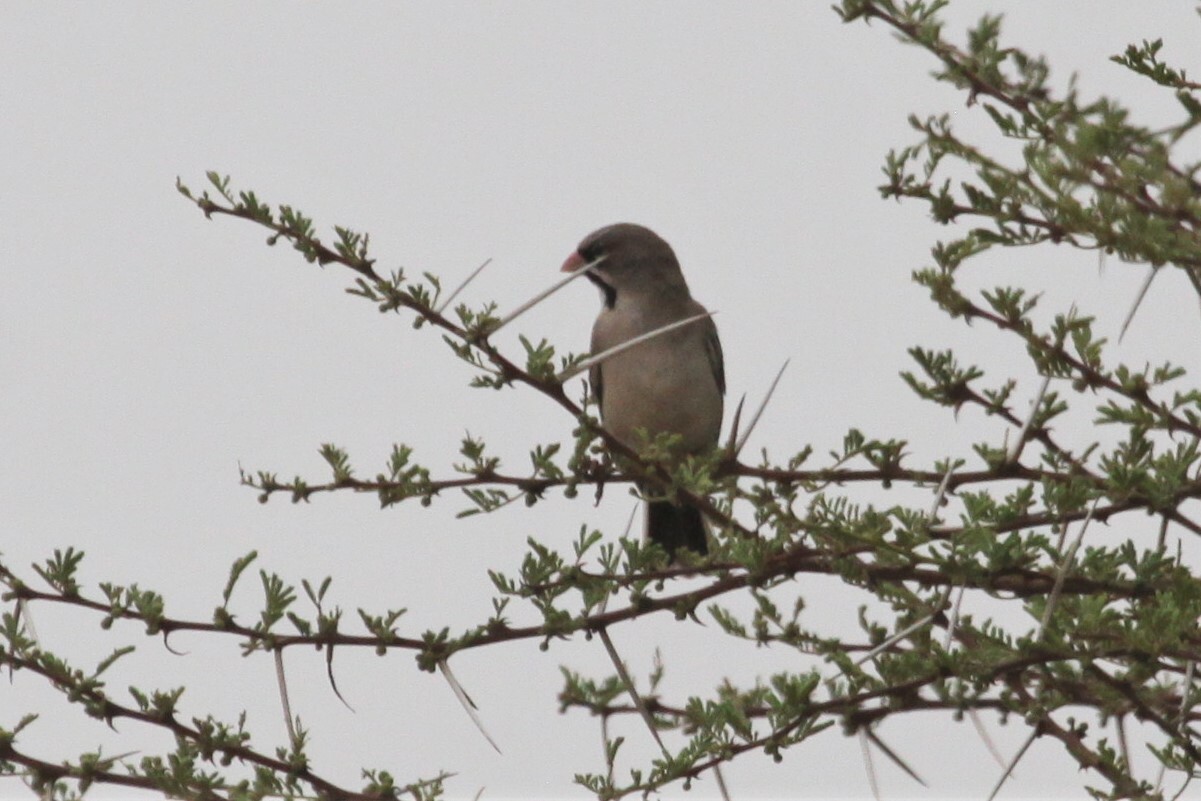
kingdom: Animalia
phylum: Chordata
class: Aves
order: Passeriformes
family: Ploceidae
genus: Sporopipes
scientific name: Sporopipes squamifrons
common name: Scaly-feathered weaver
